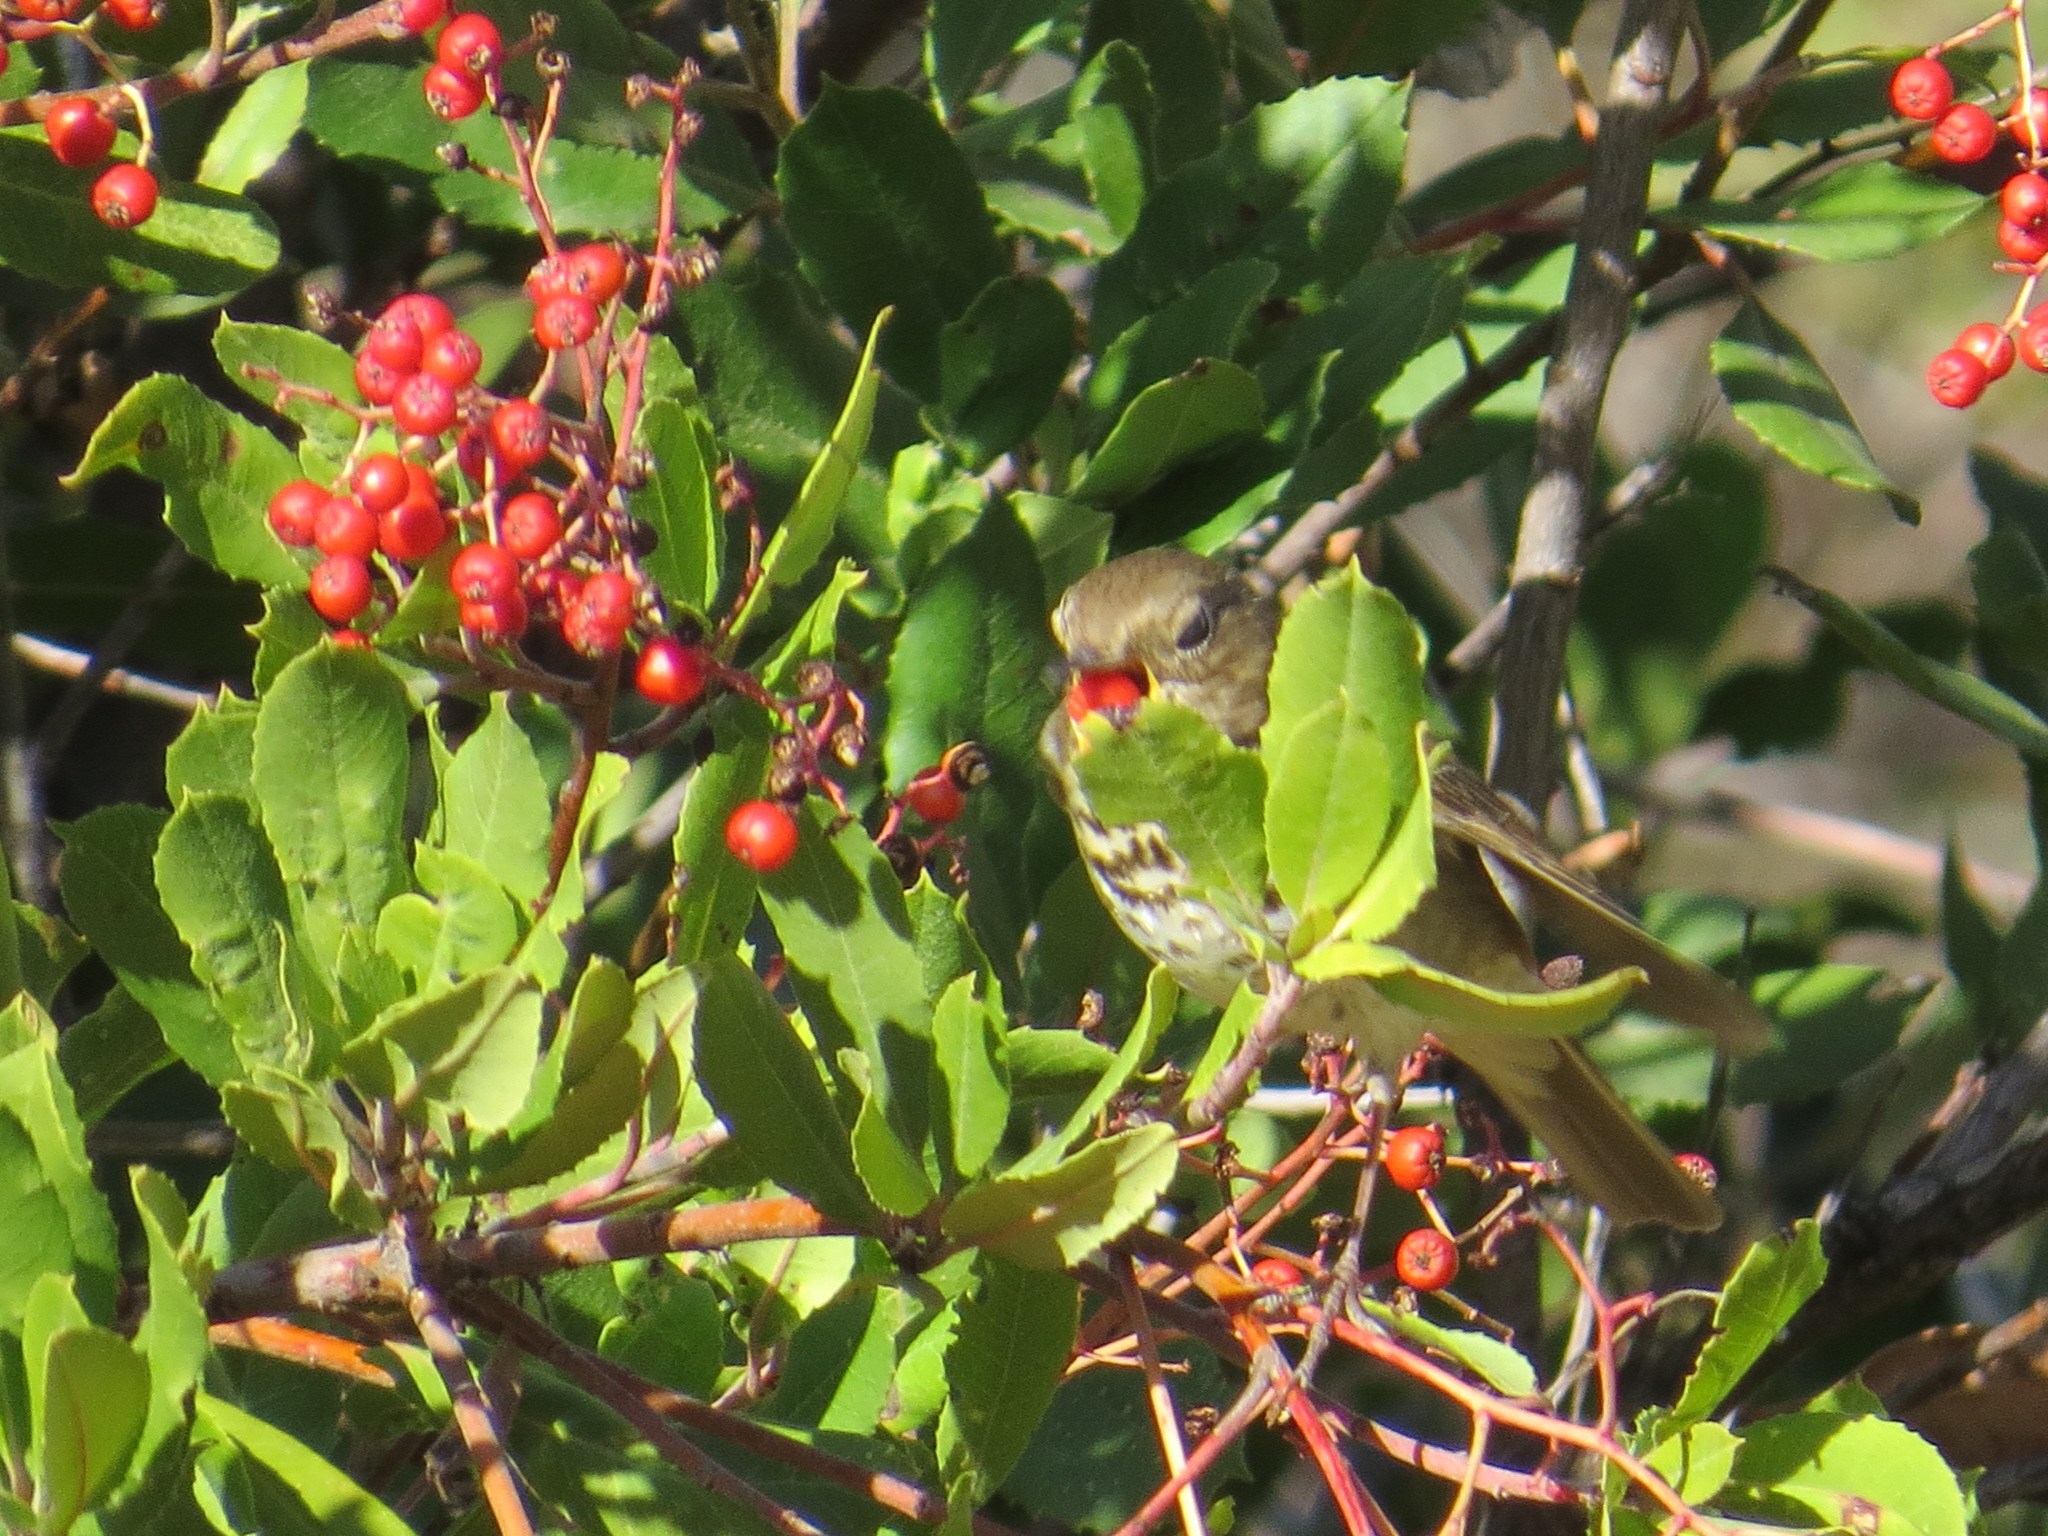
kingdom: Plantae
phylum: Tracheophyta
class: Magnoliopsida
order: Rosales
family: Rosaceae
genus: Heteromeles
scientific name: Heteromeles arbutifolia
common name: California-holly
